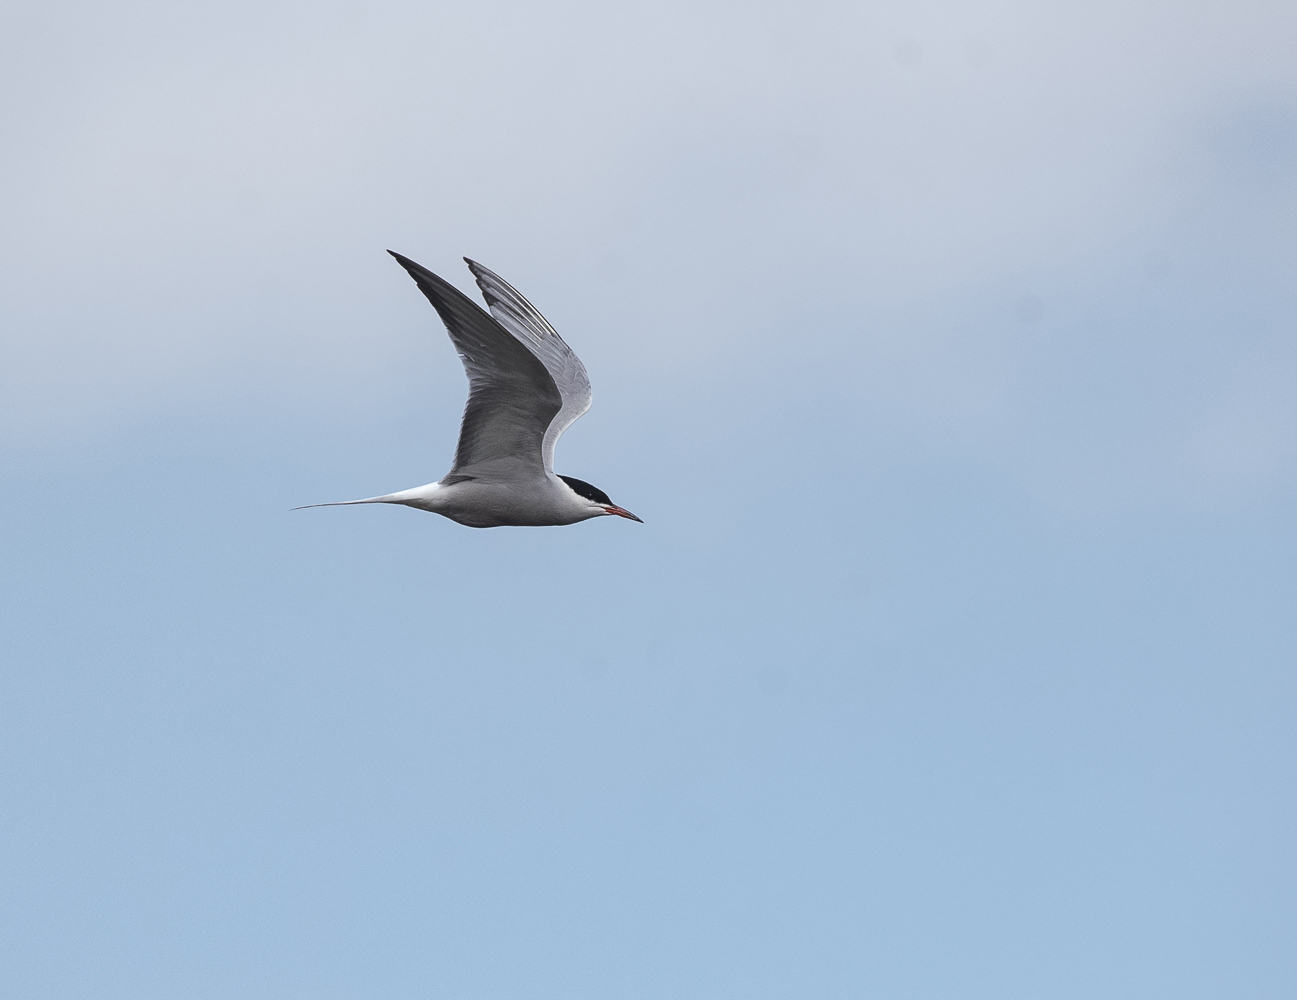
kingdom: Animalia
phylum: Chordata
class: Aves
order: Charadriiformes
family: Laridae
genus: Sterna
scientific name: Sterna hirundo
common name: Common tern
